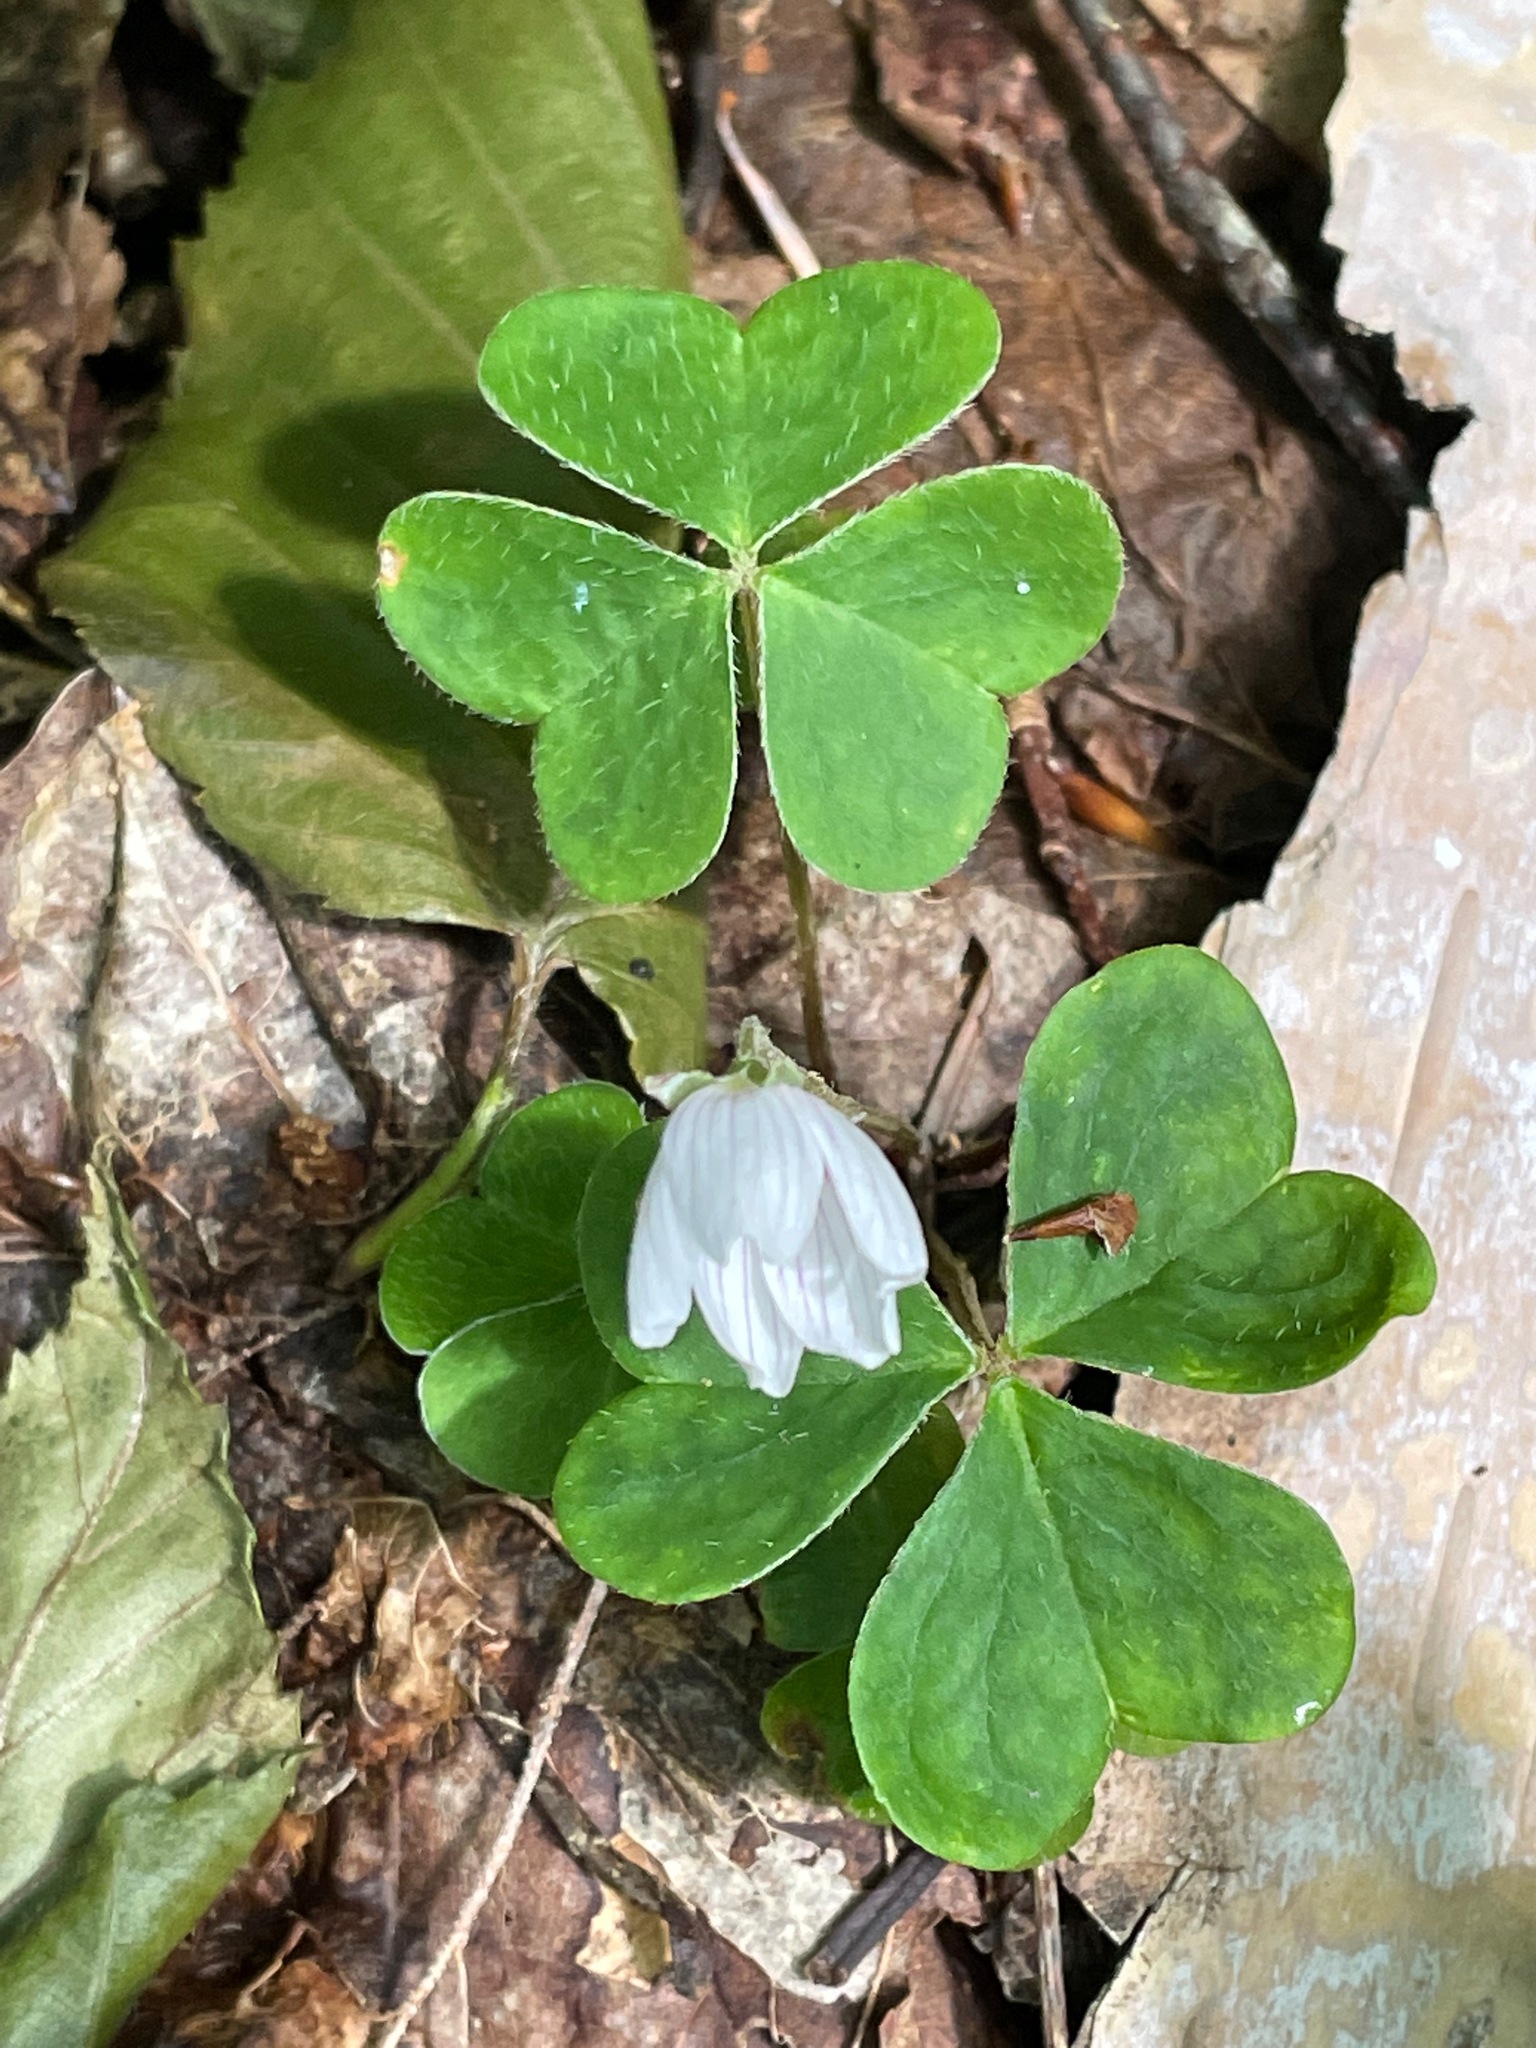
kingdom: Plantae
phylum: Tracheophyta
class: Magnoliopsida
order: Oxalidales
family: Oxalidaceae
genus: Oxalis
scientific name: Oxalis montana
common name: American wood-sorrel
